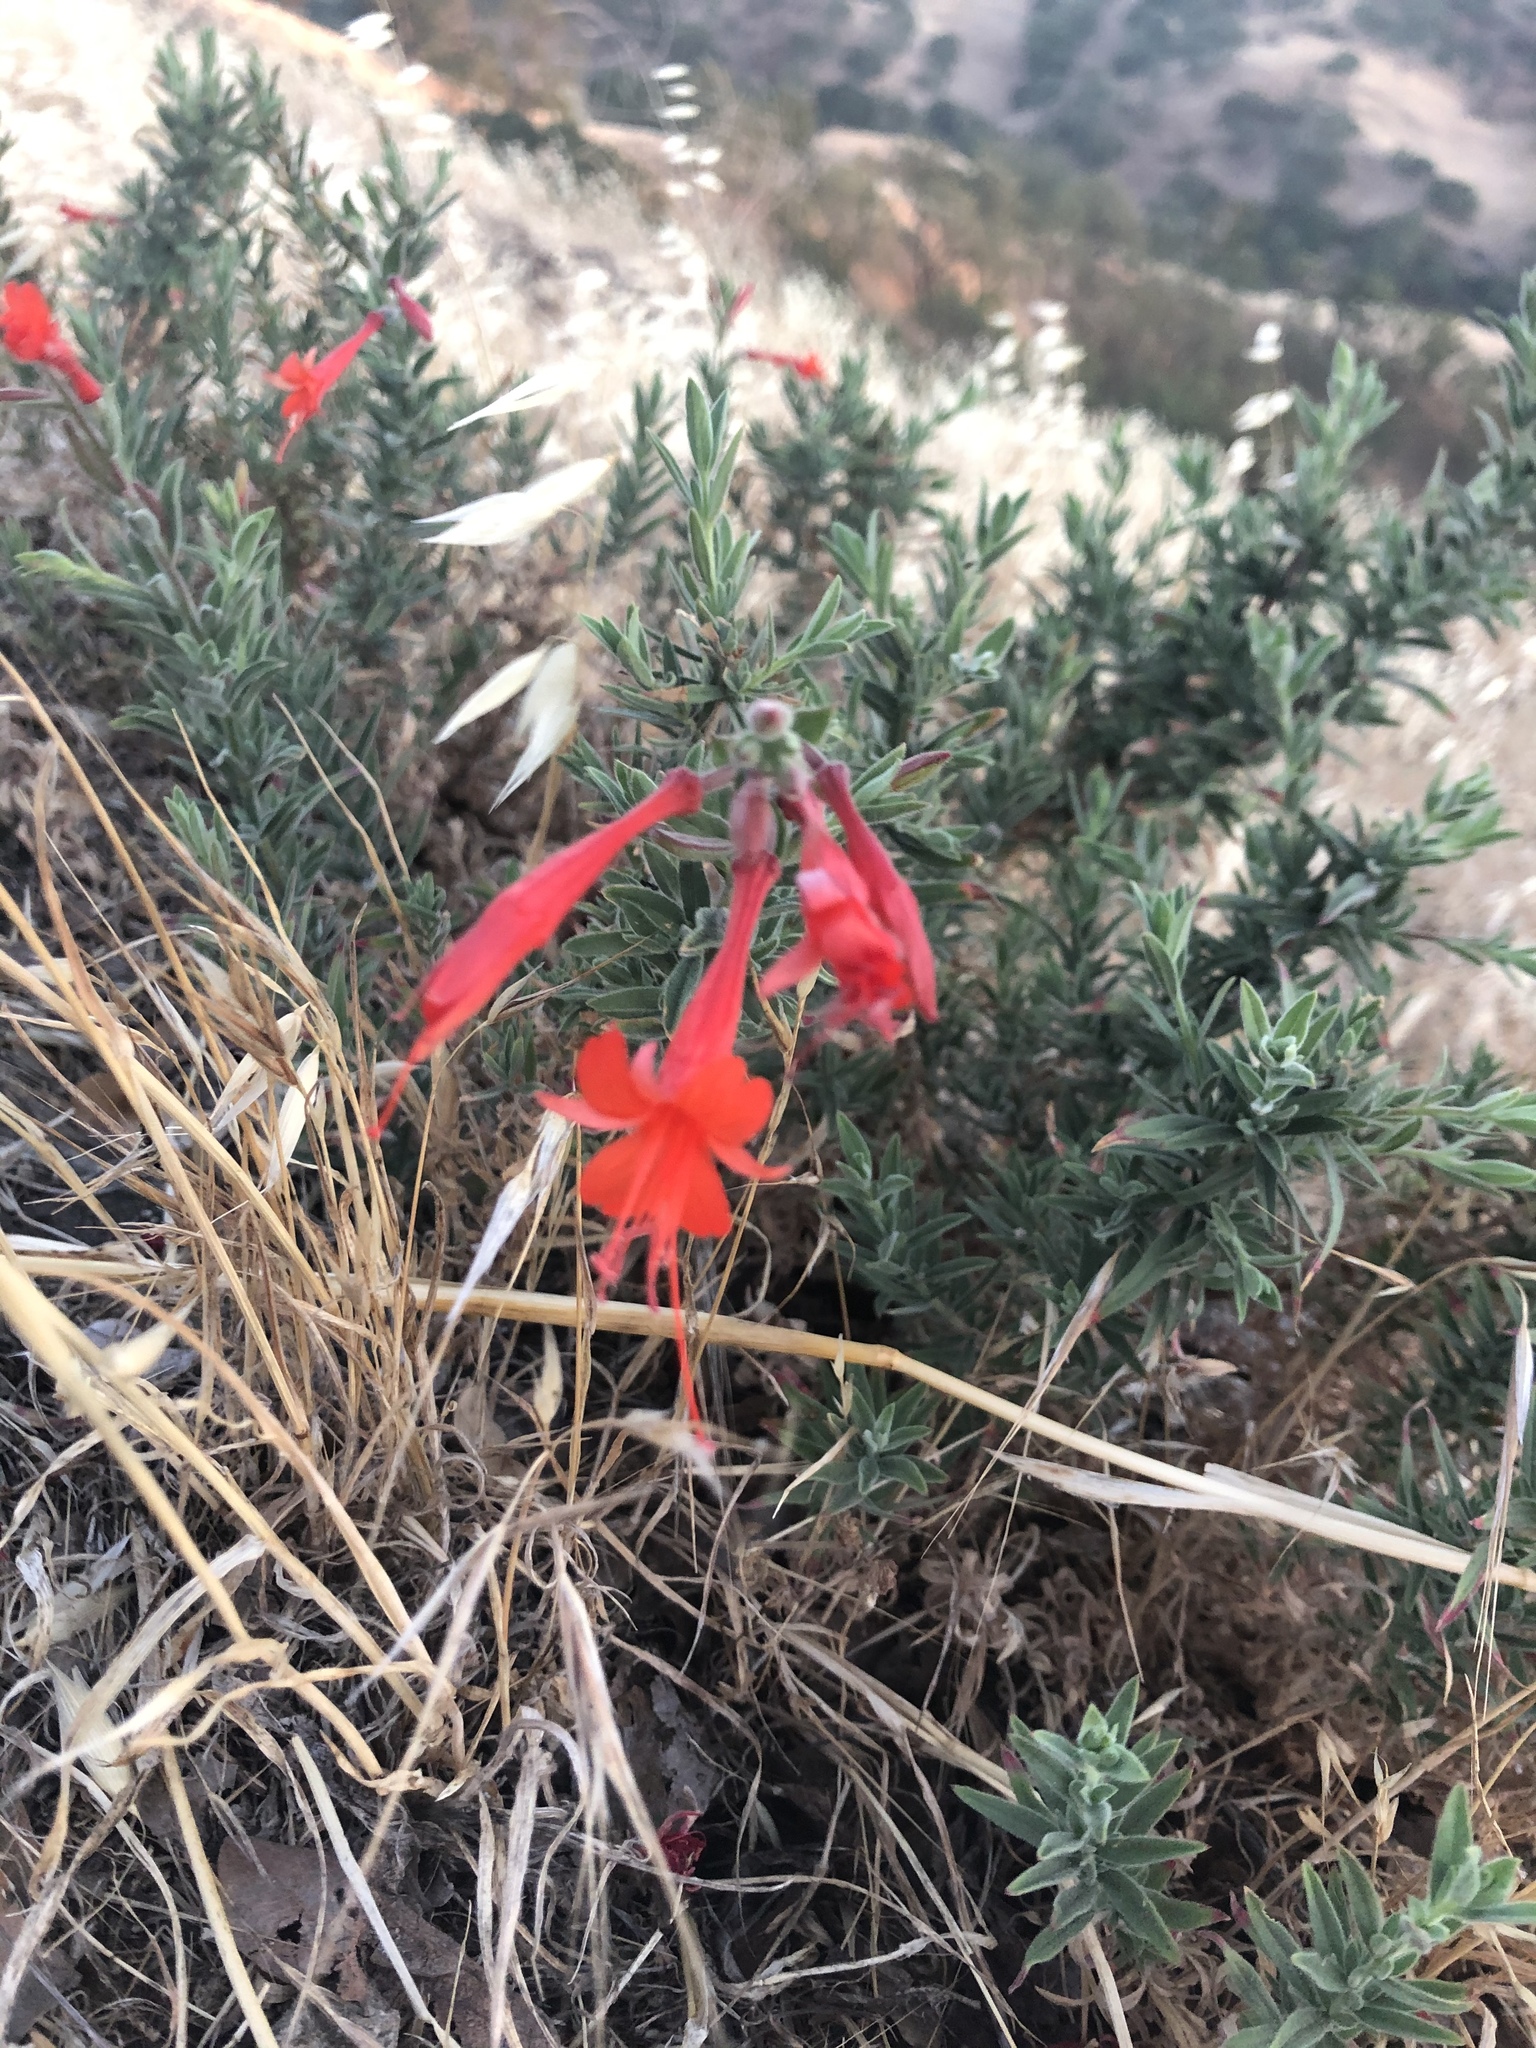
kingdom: Plantae
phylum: Tracheophyta
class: Magnoliopsida
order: Myrtales
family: Onagraceae
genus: Epilobium
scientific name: Epilobium canum
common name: California-fuchsia
